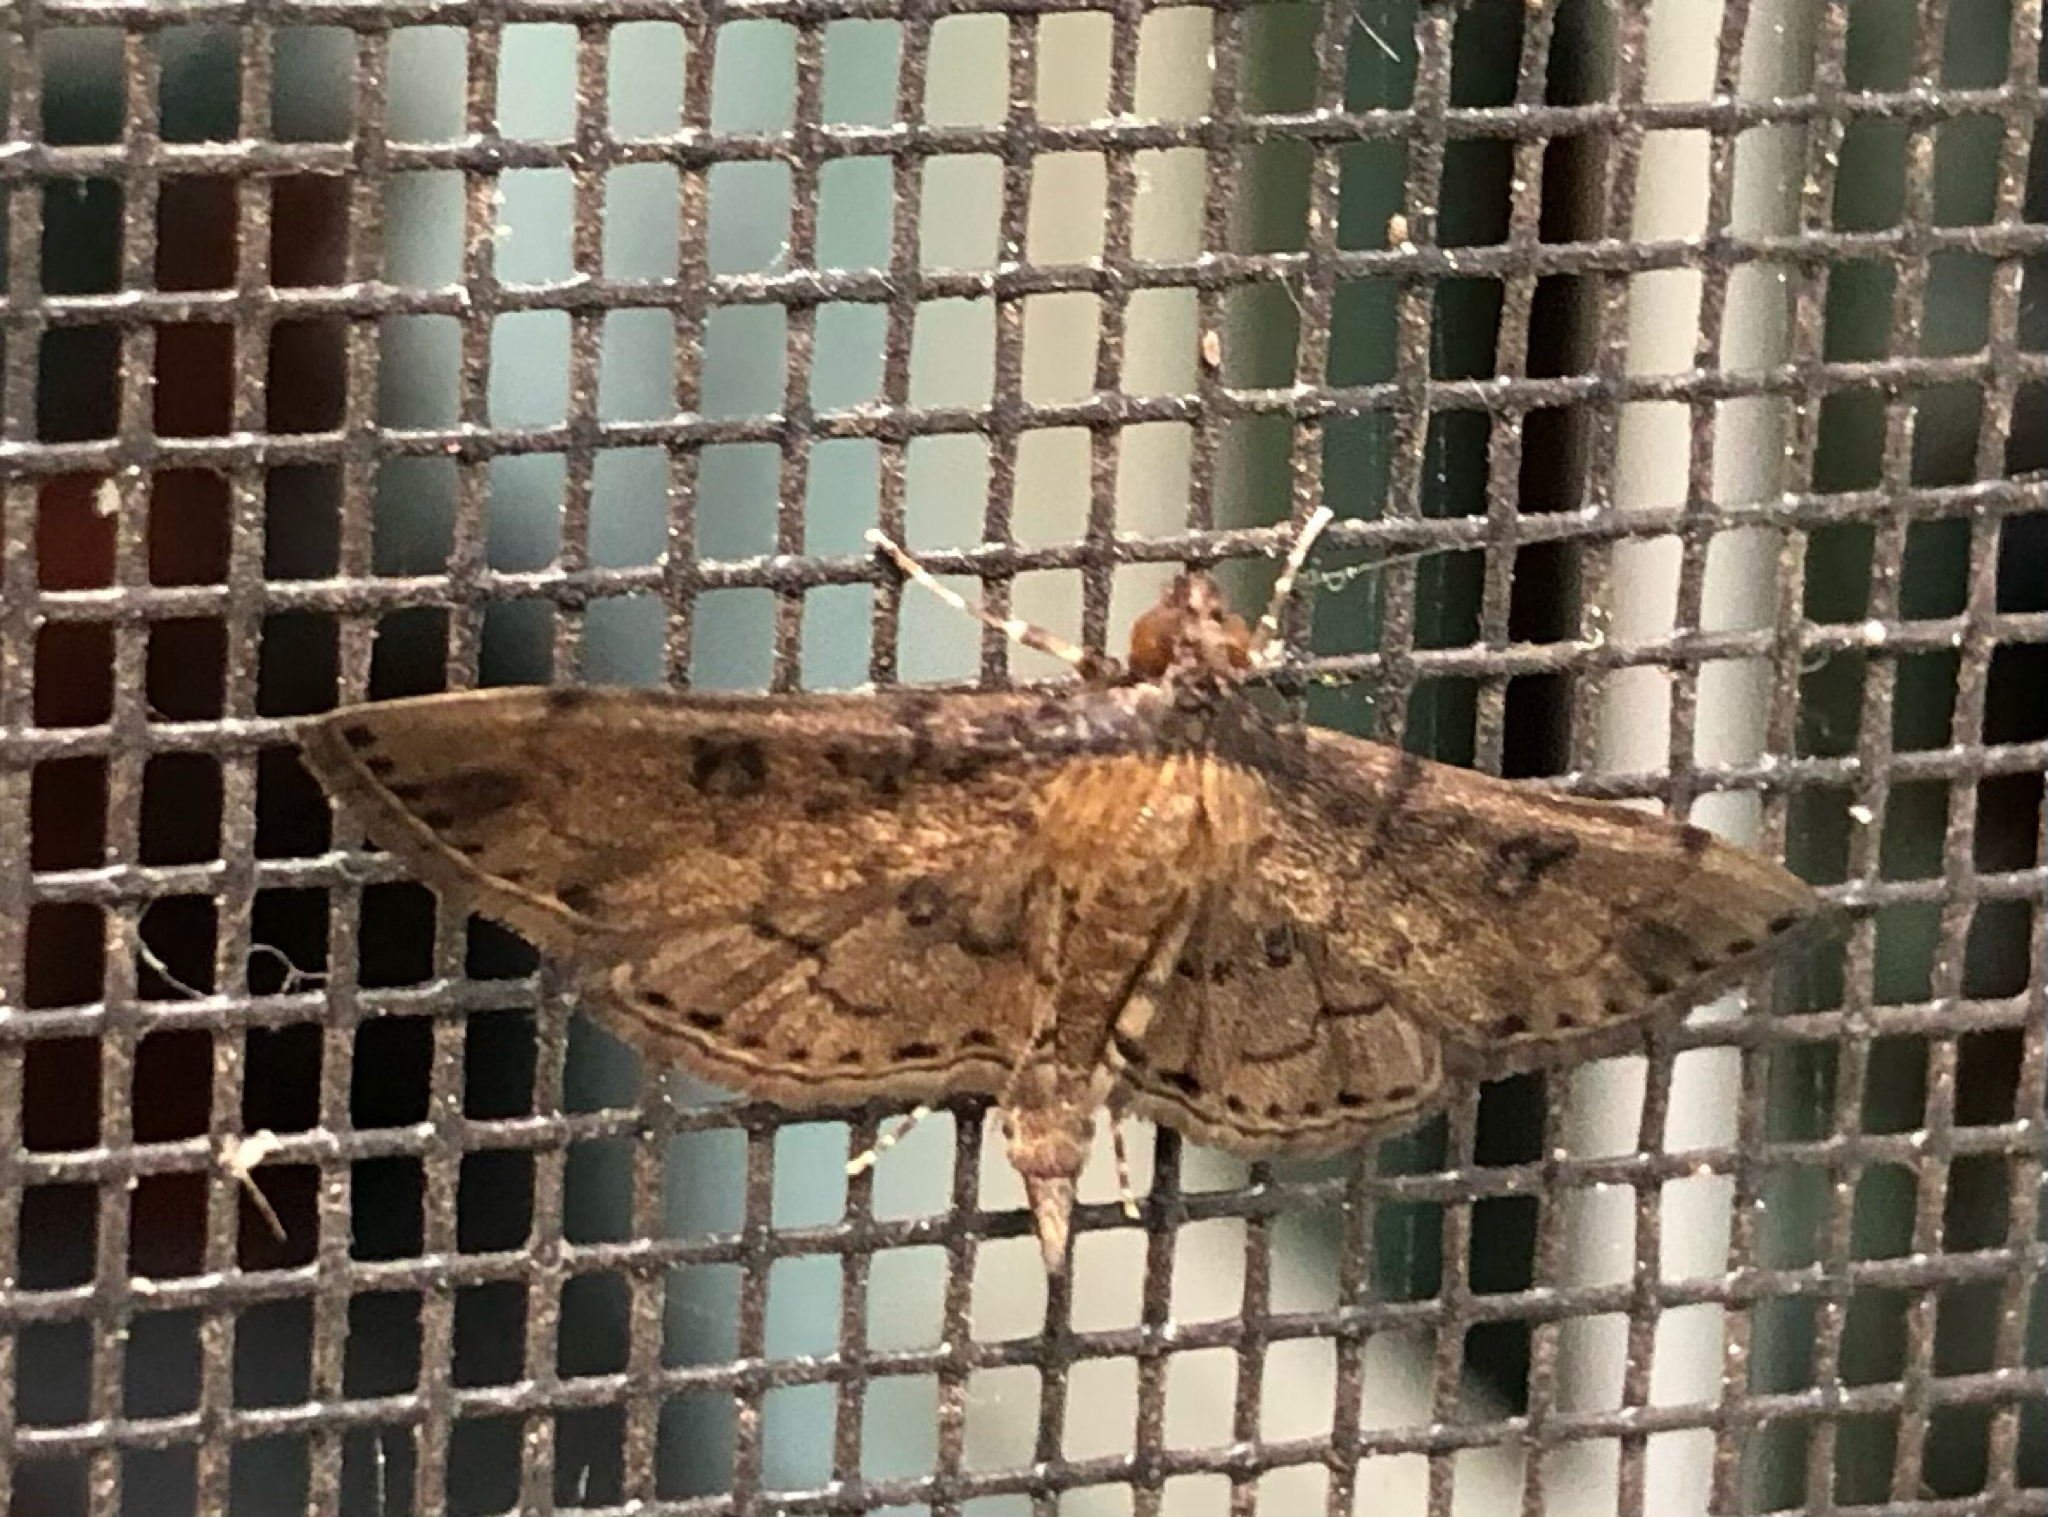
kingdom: Animalia
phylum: Arthropoda
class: Insecta
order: Lepidoptera
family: Crambidae
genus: Nacoleia
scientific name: Nacoleia charesalis
